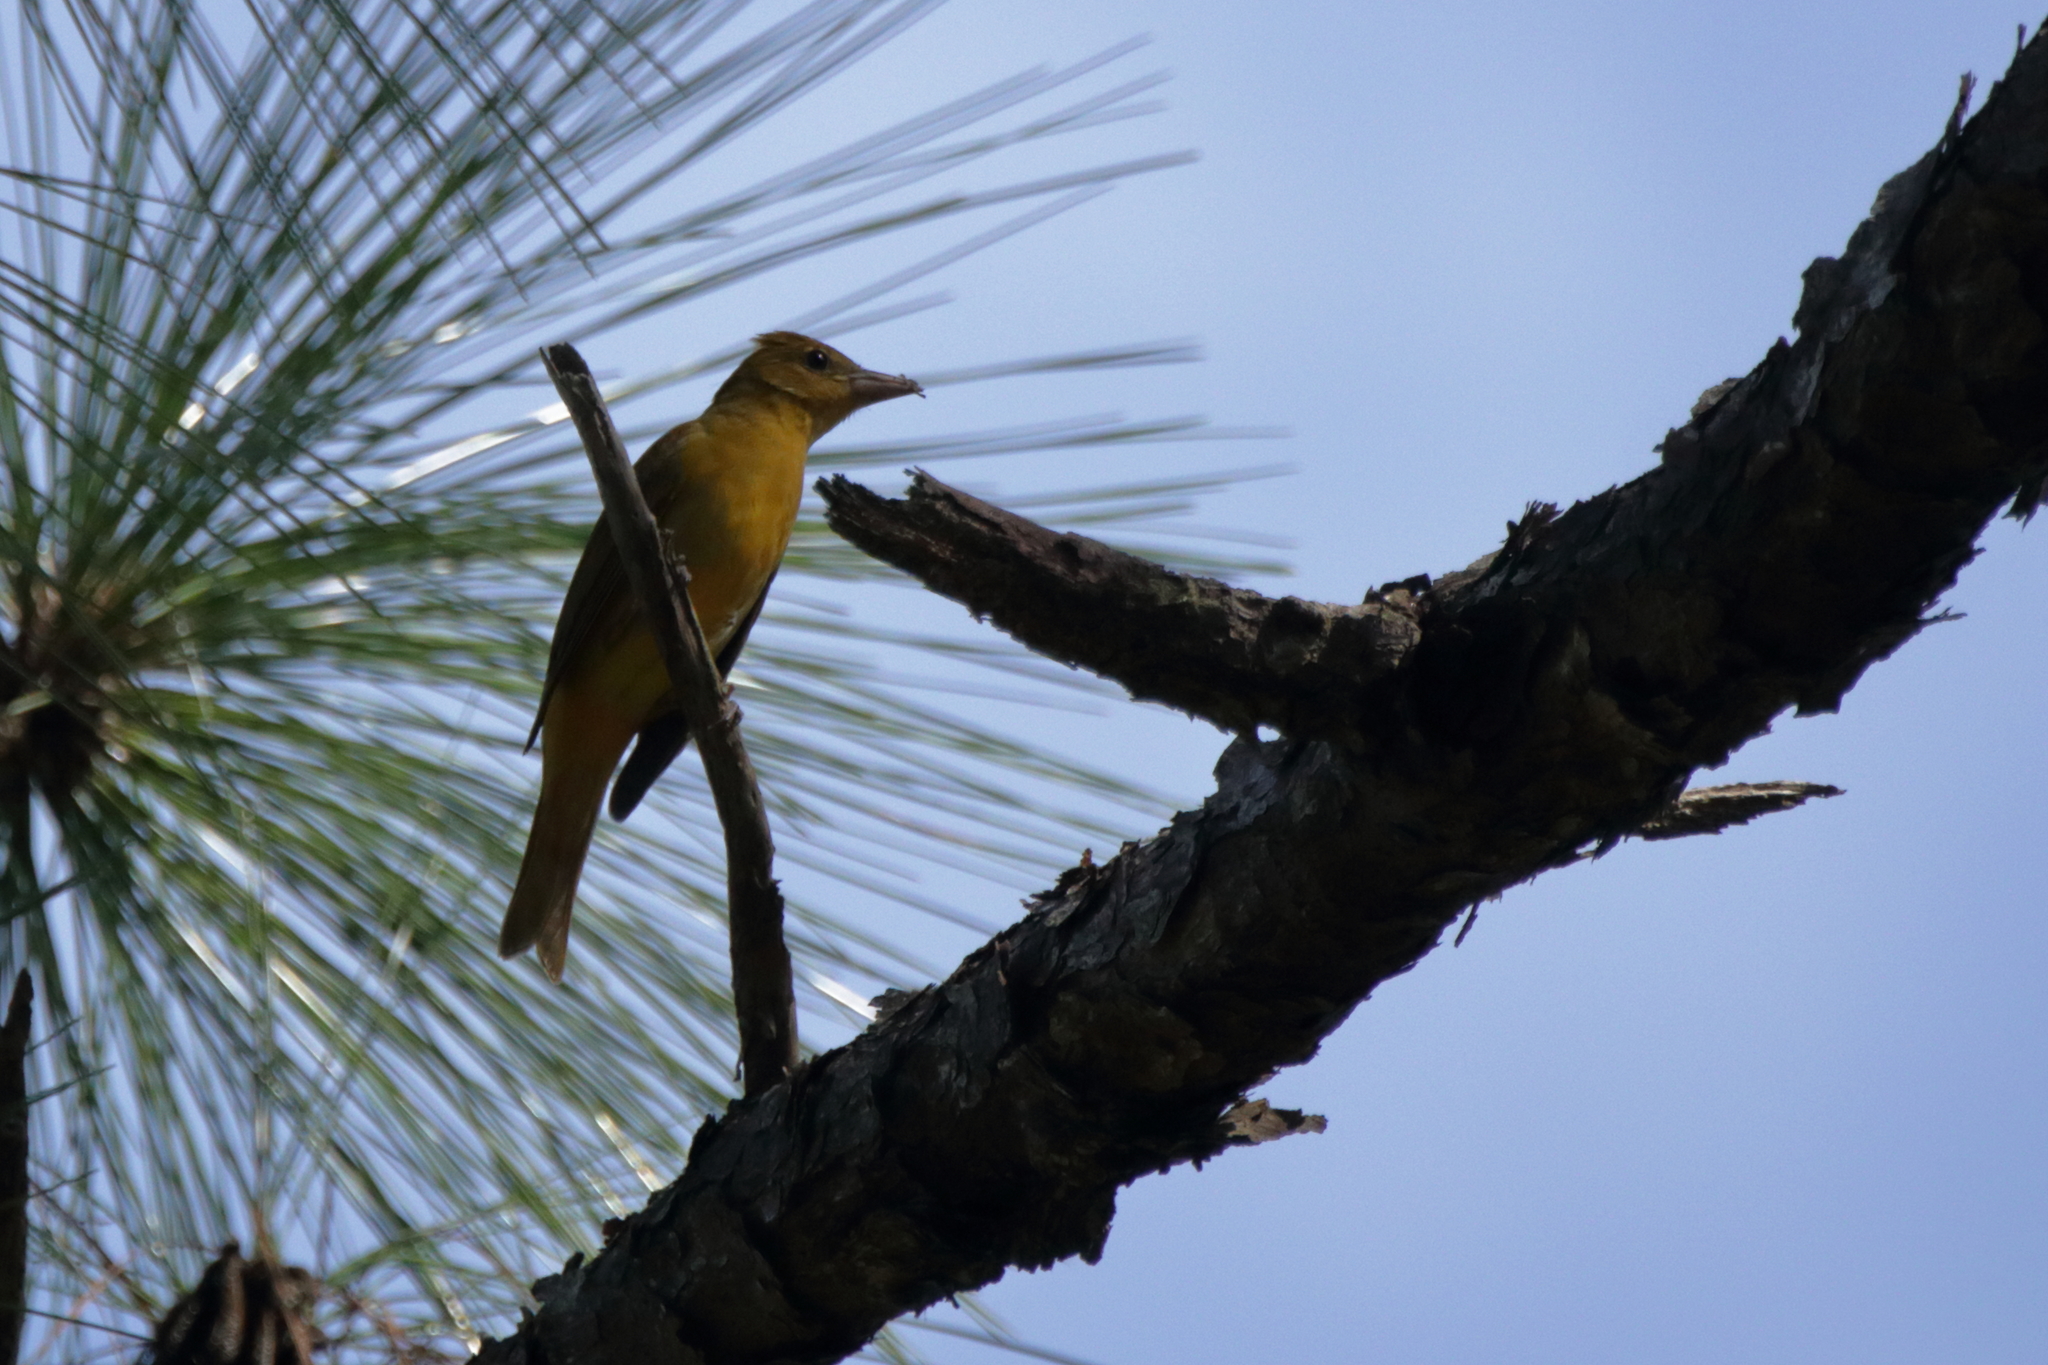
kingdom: Animalia
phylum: Chordata
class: Aves
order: Passeriformes
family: Cardinalidae
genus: Piranga
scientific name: Piranga rubra
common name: Summer tanager
